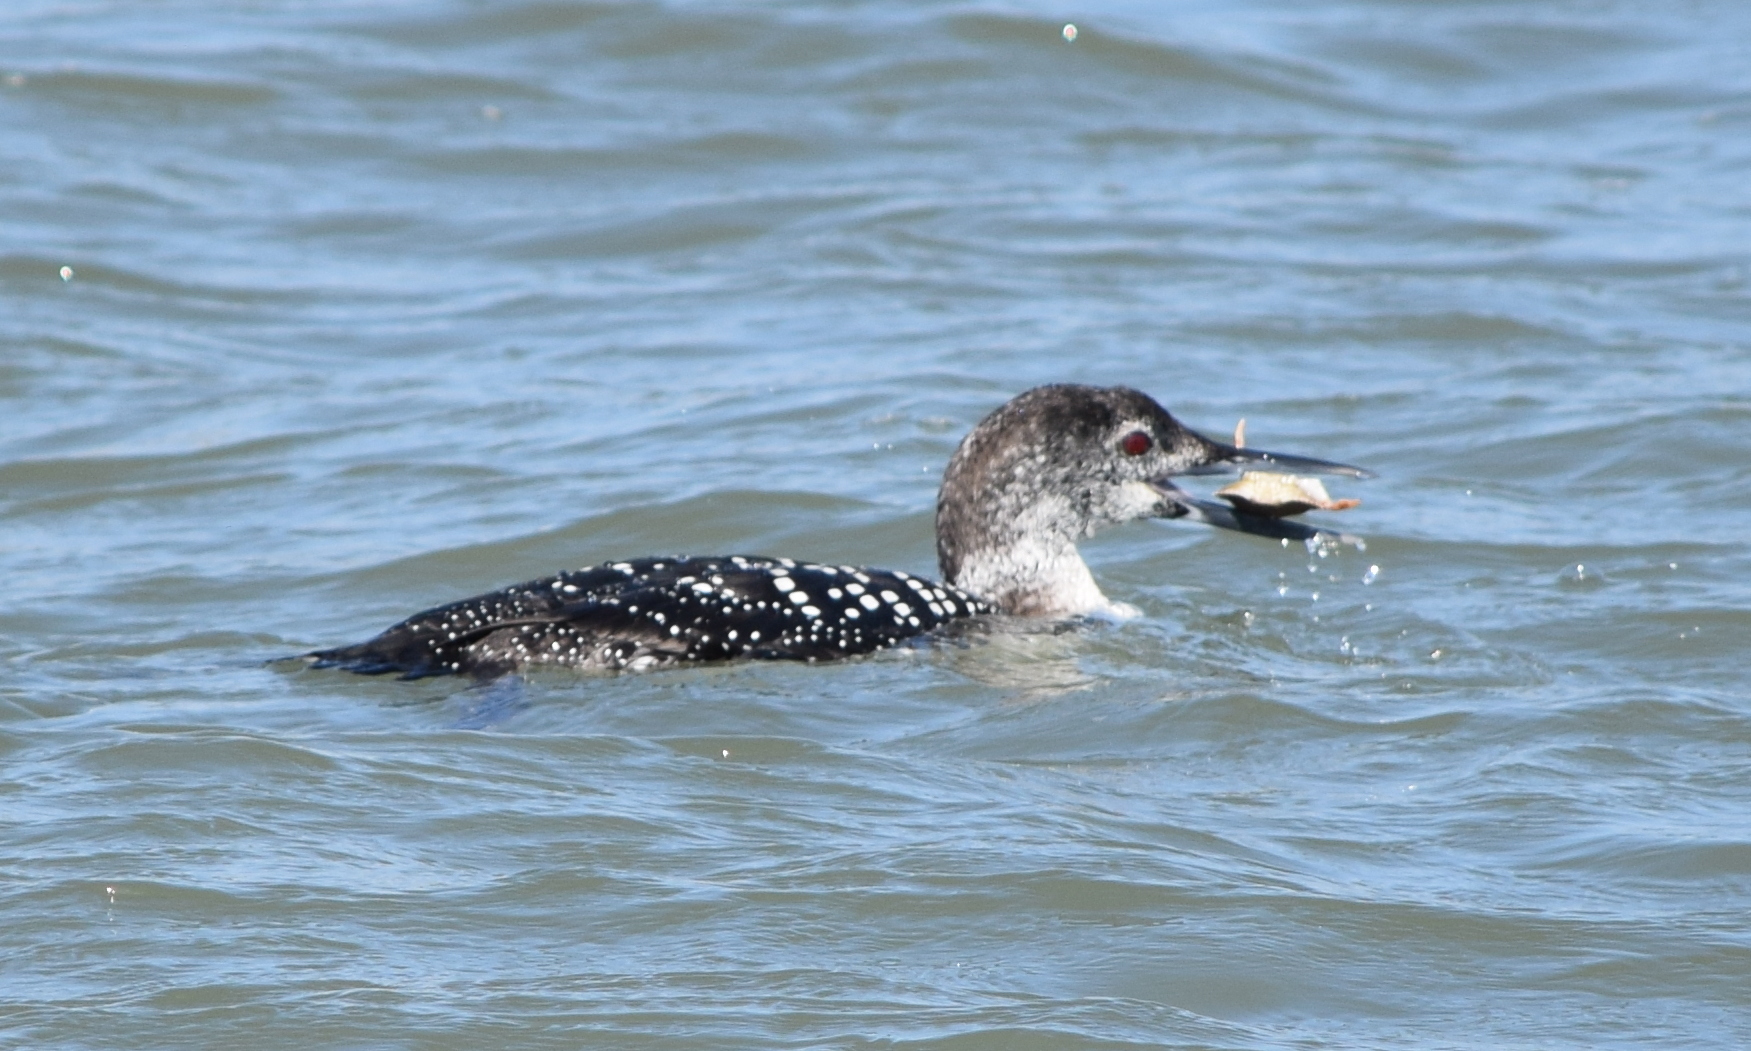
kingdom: Animalia
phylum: Chordata
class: Aves
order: Gaviiformes
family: Gaviidae
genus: Gavia
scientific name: Gavia immer
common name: Common loon
